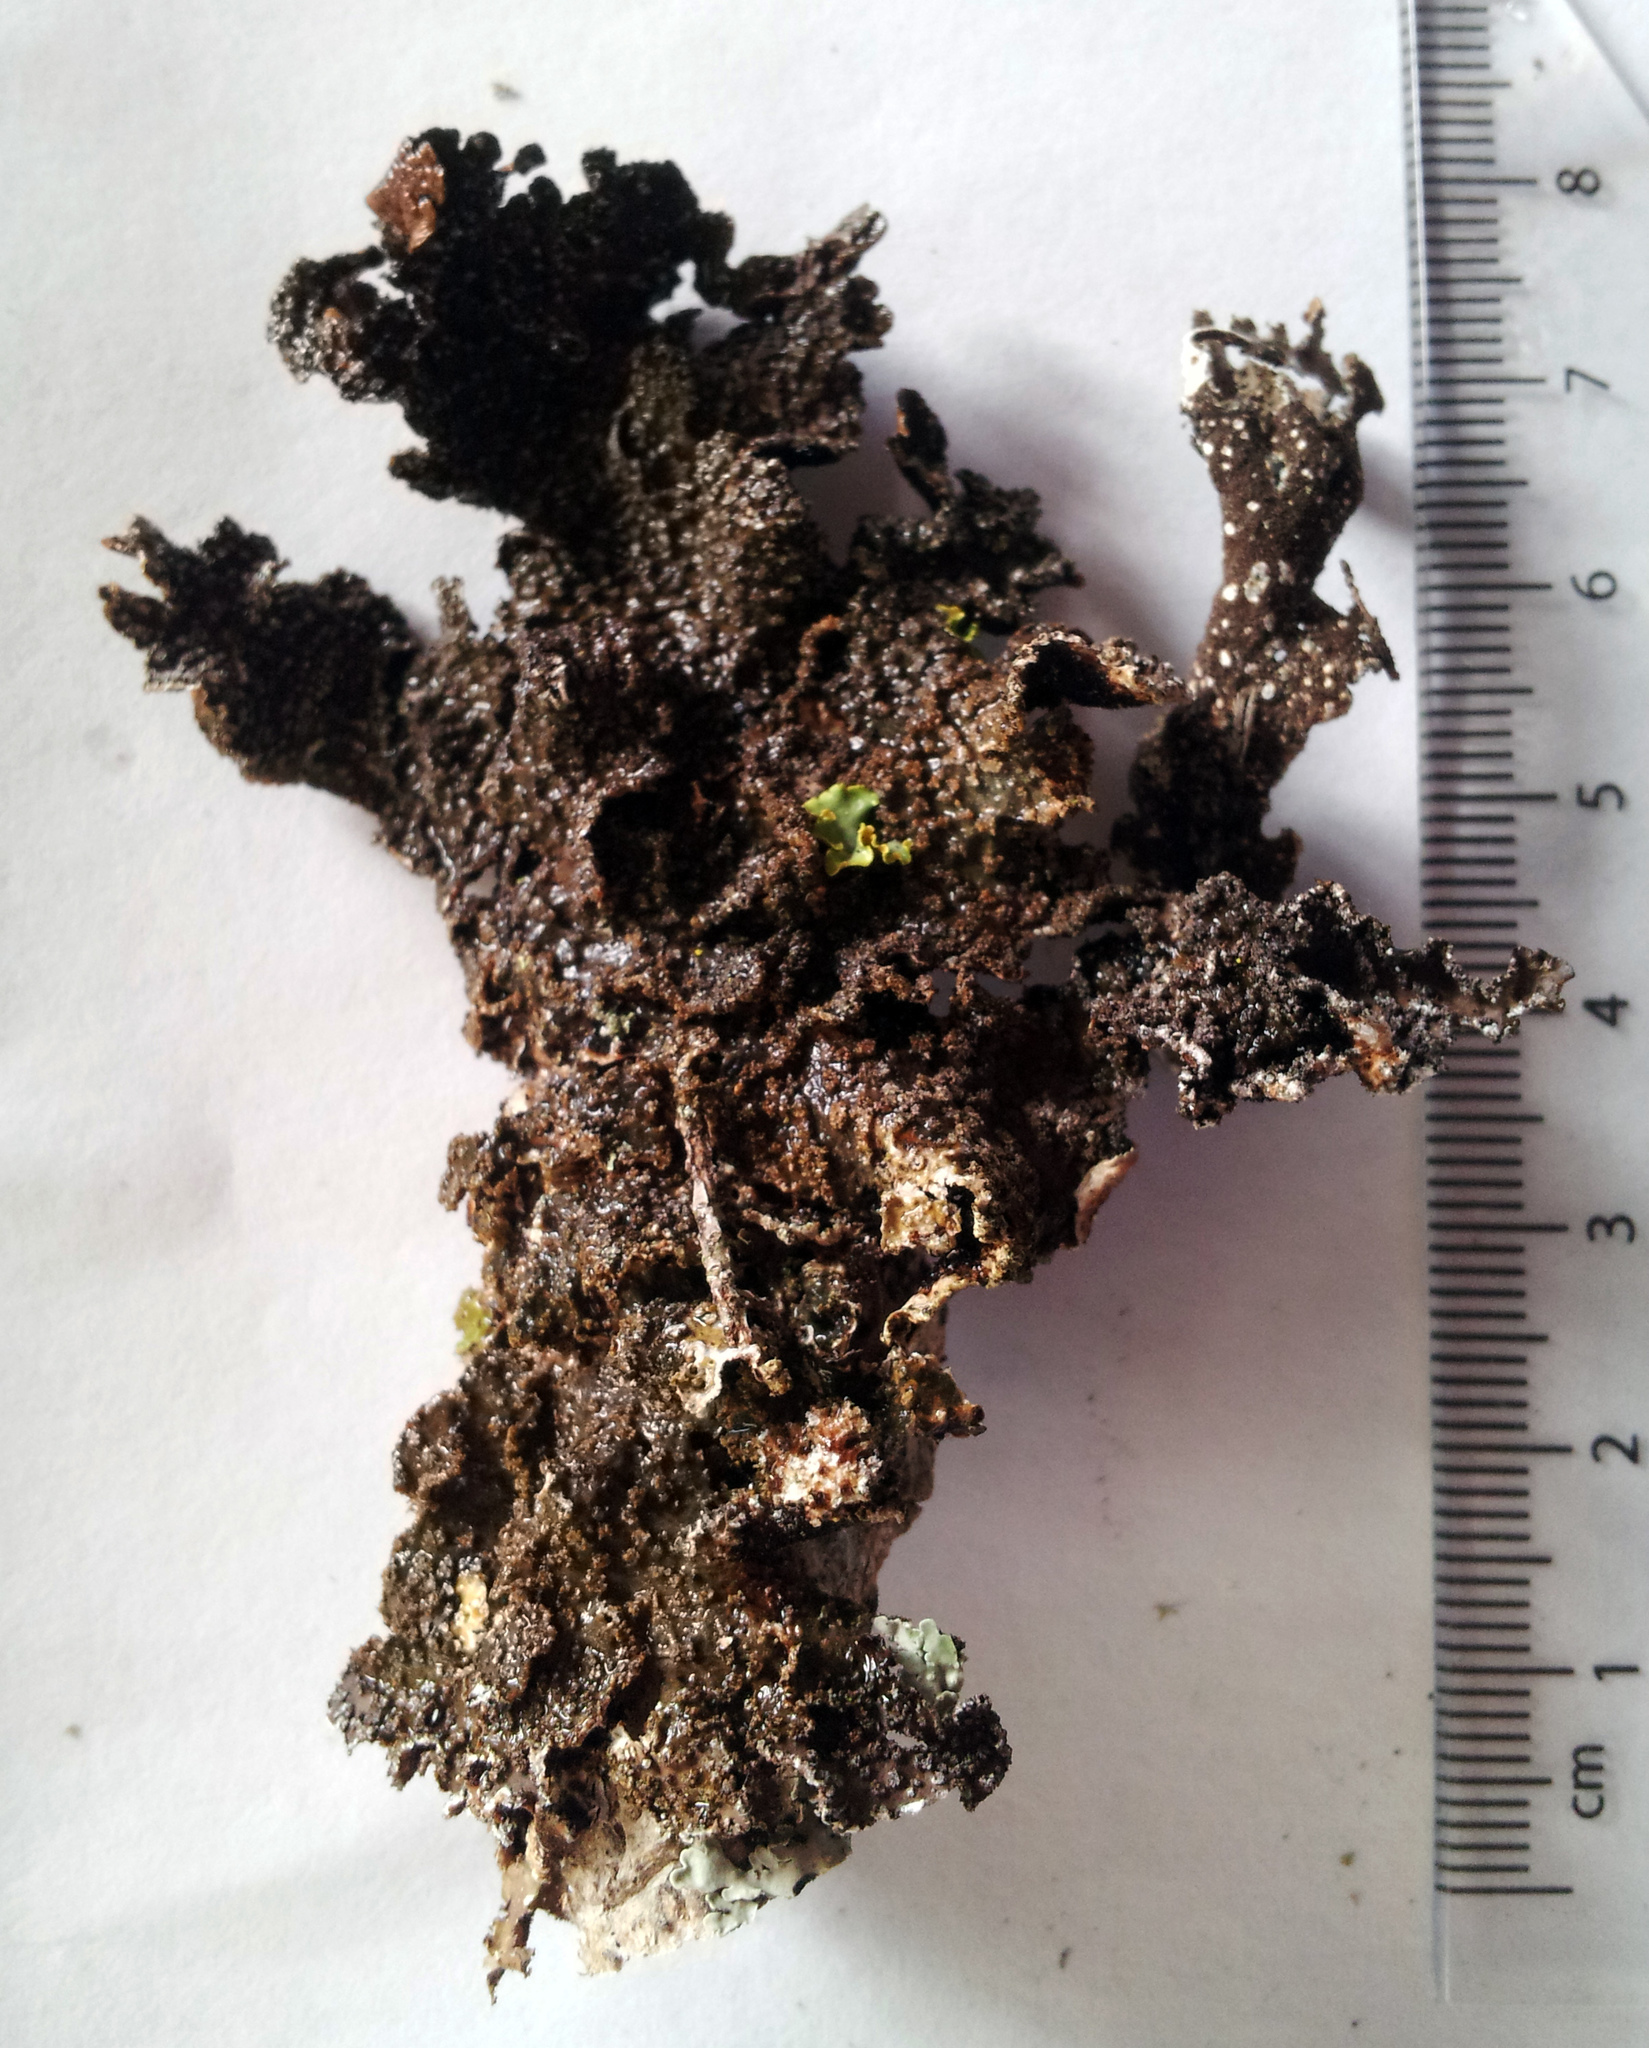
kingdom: Fungi
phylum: Ascomycota
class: Lecanoromycetes
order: Peltigerales
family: Lobariaceae
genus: Pseudocyphellaria
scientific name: Pseudocyphellaria haywardiorum
